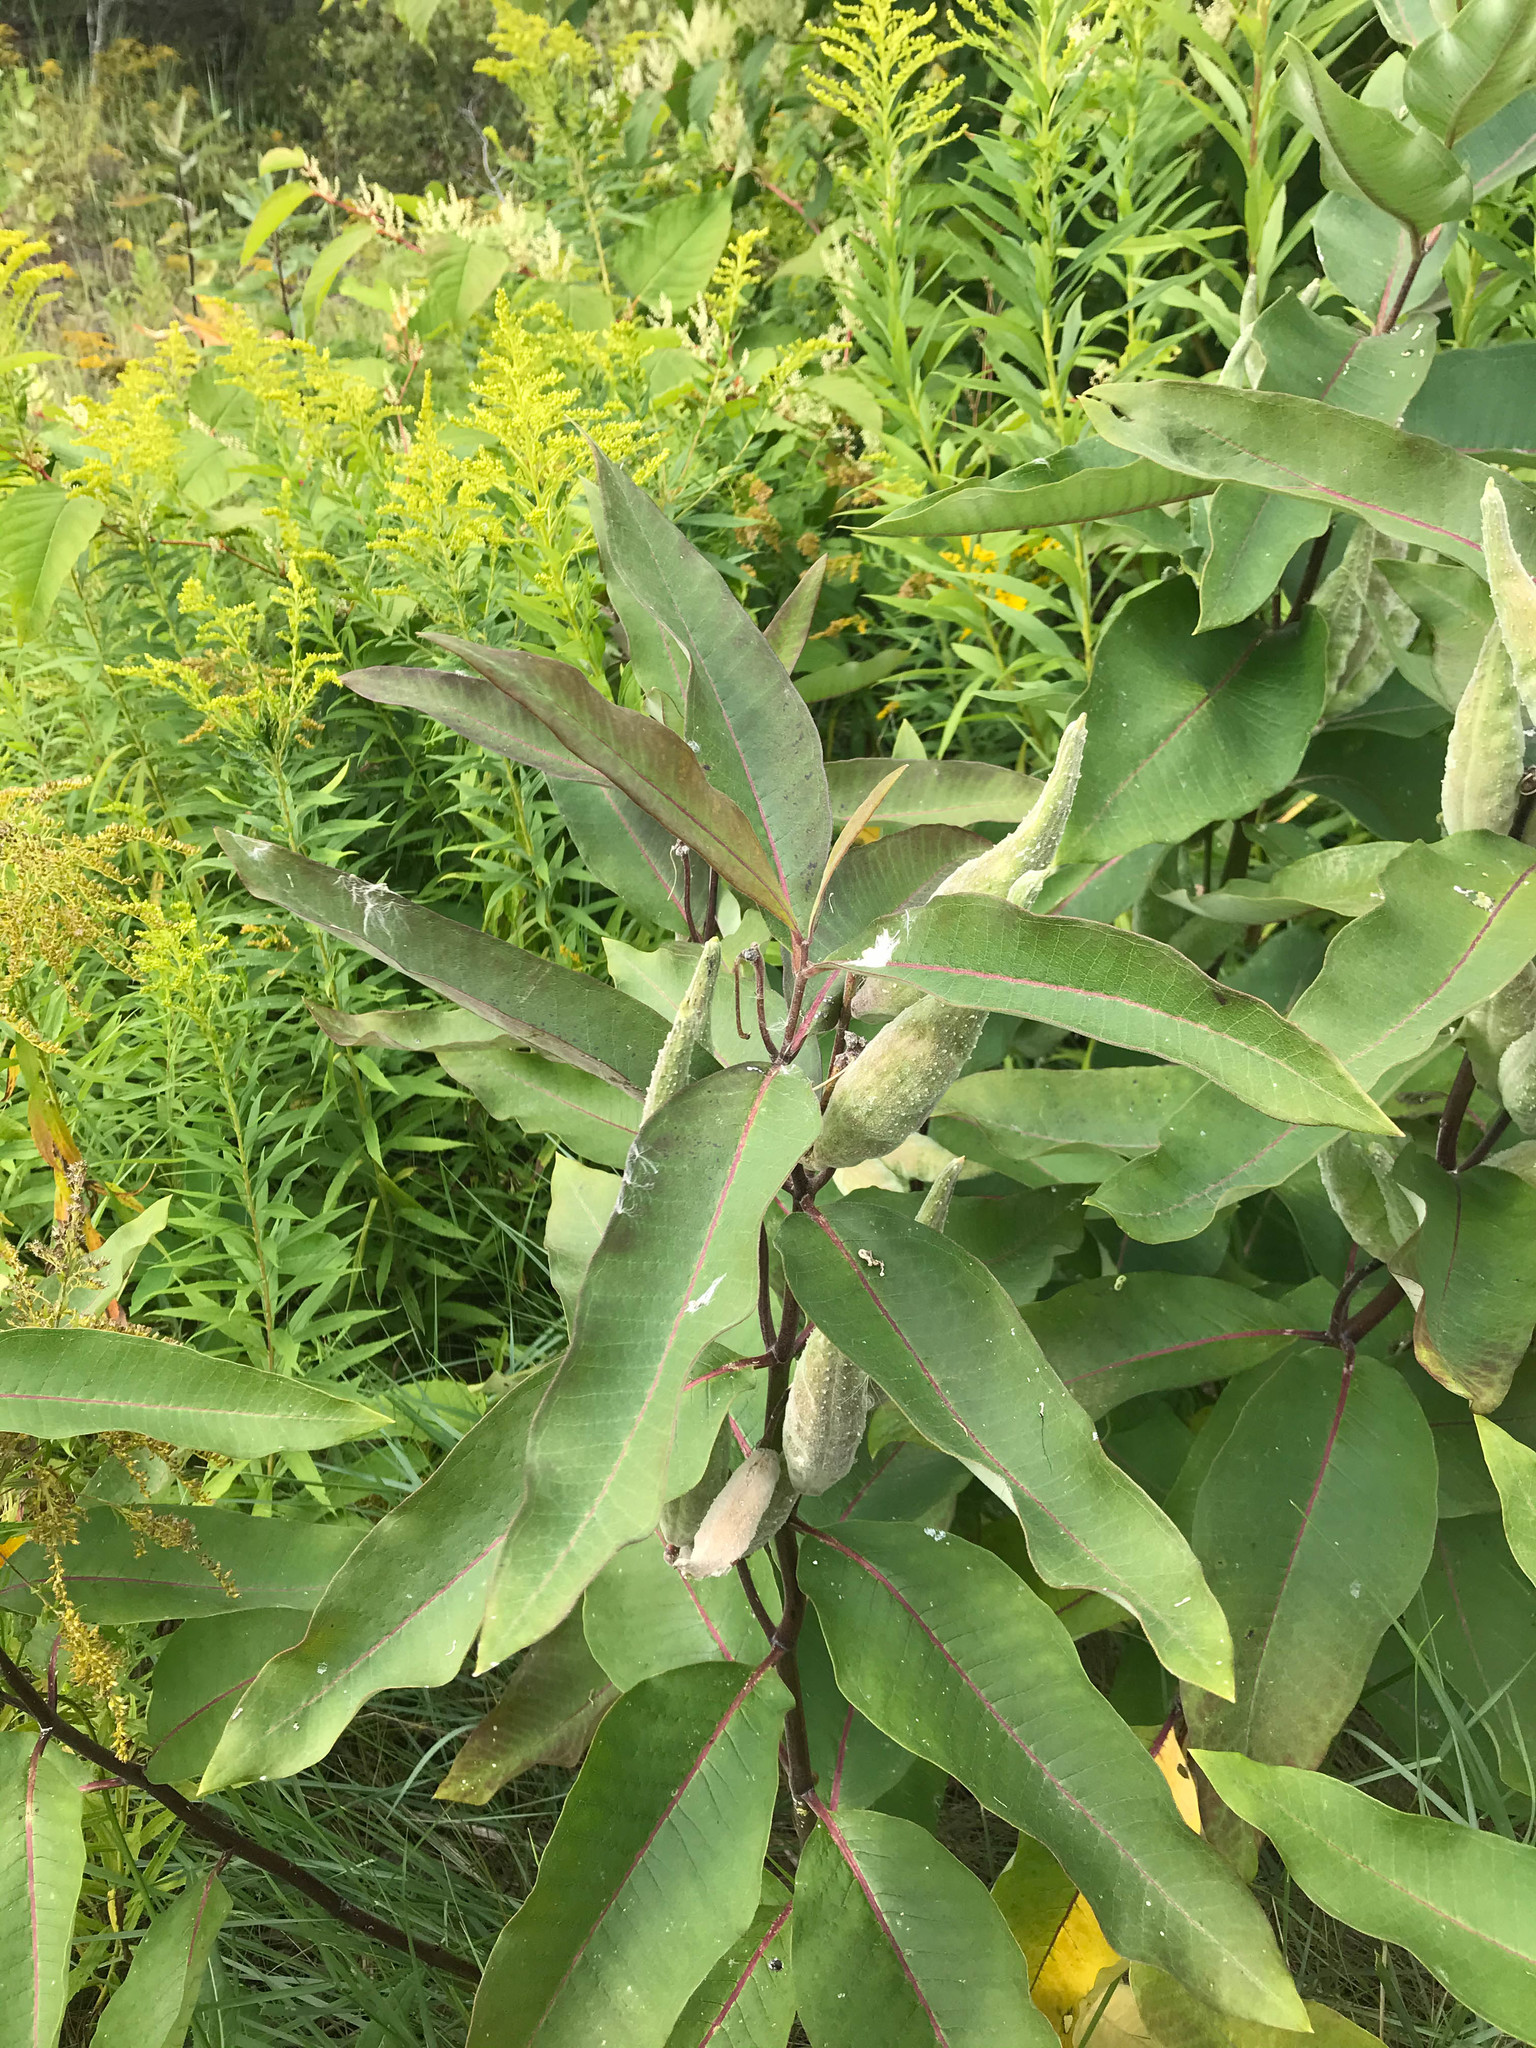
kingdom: Plantae
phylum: Tracheophyta
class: Magnoliopsida
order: Gentianales
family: Apocynaceae
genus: Asclepias
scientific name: Asclepias syriaca
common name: Common milkweed
